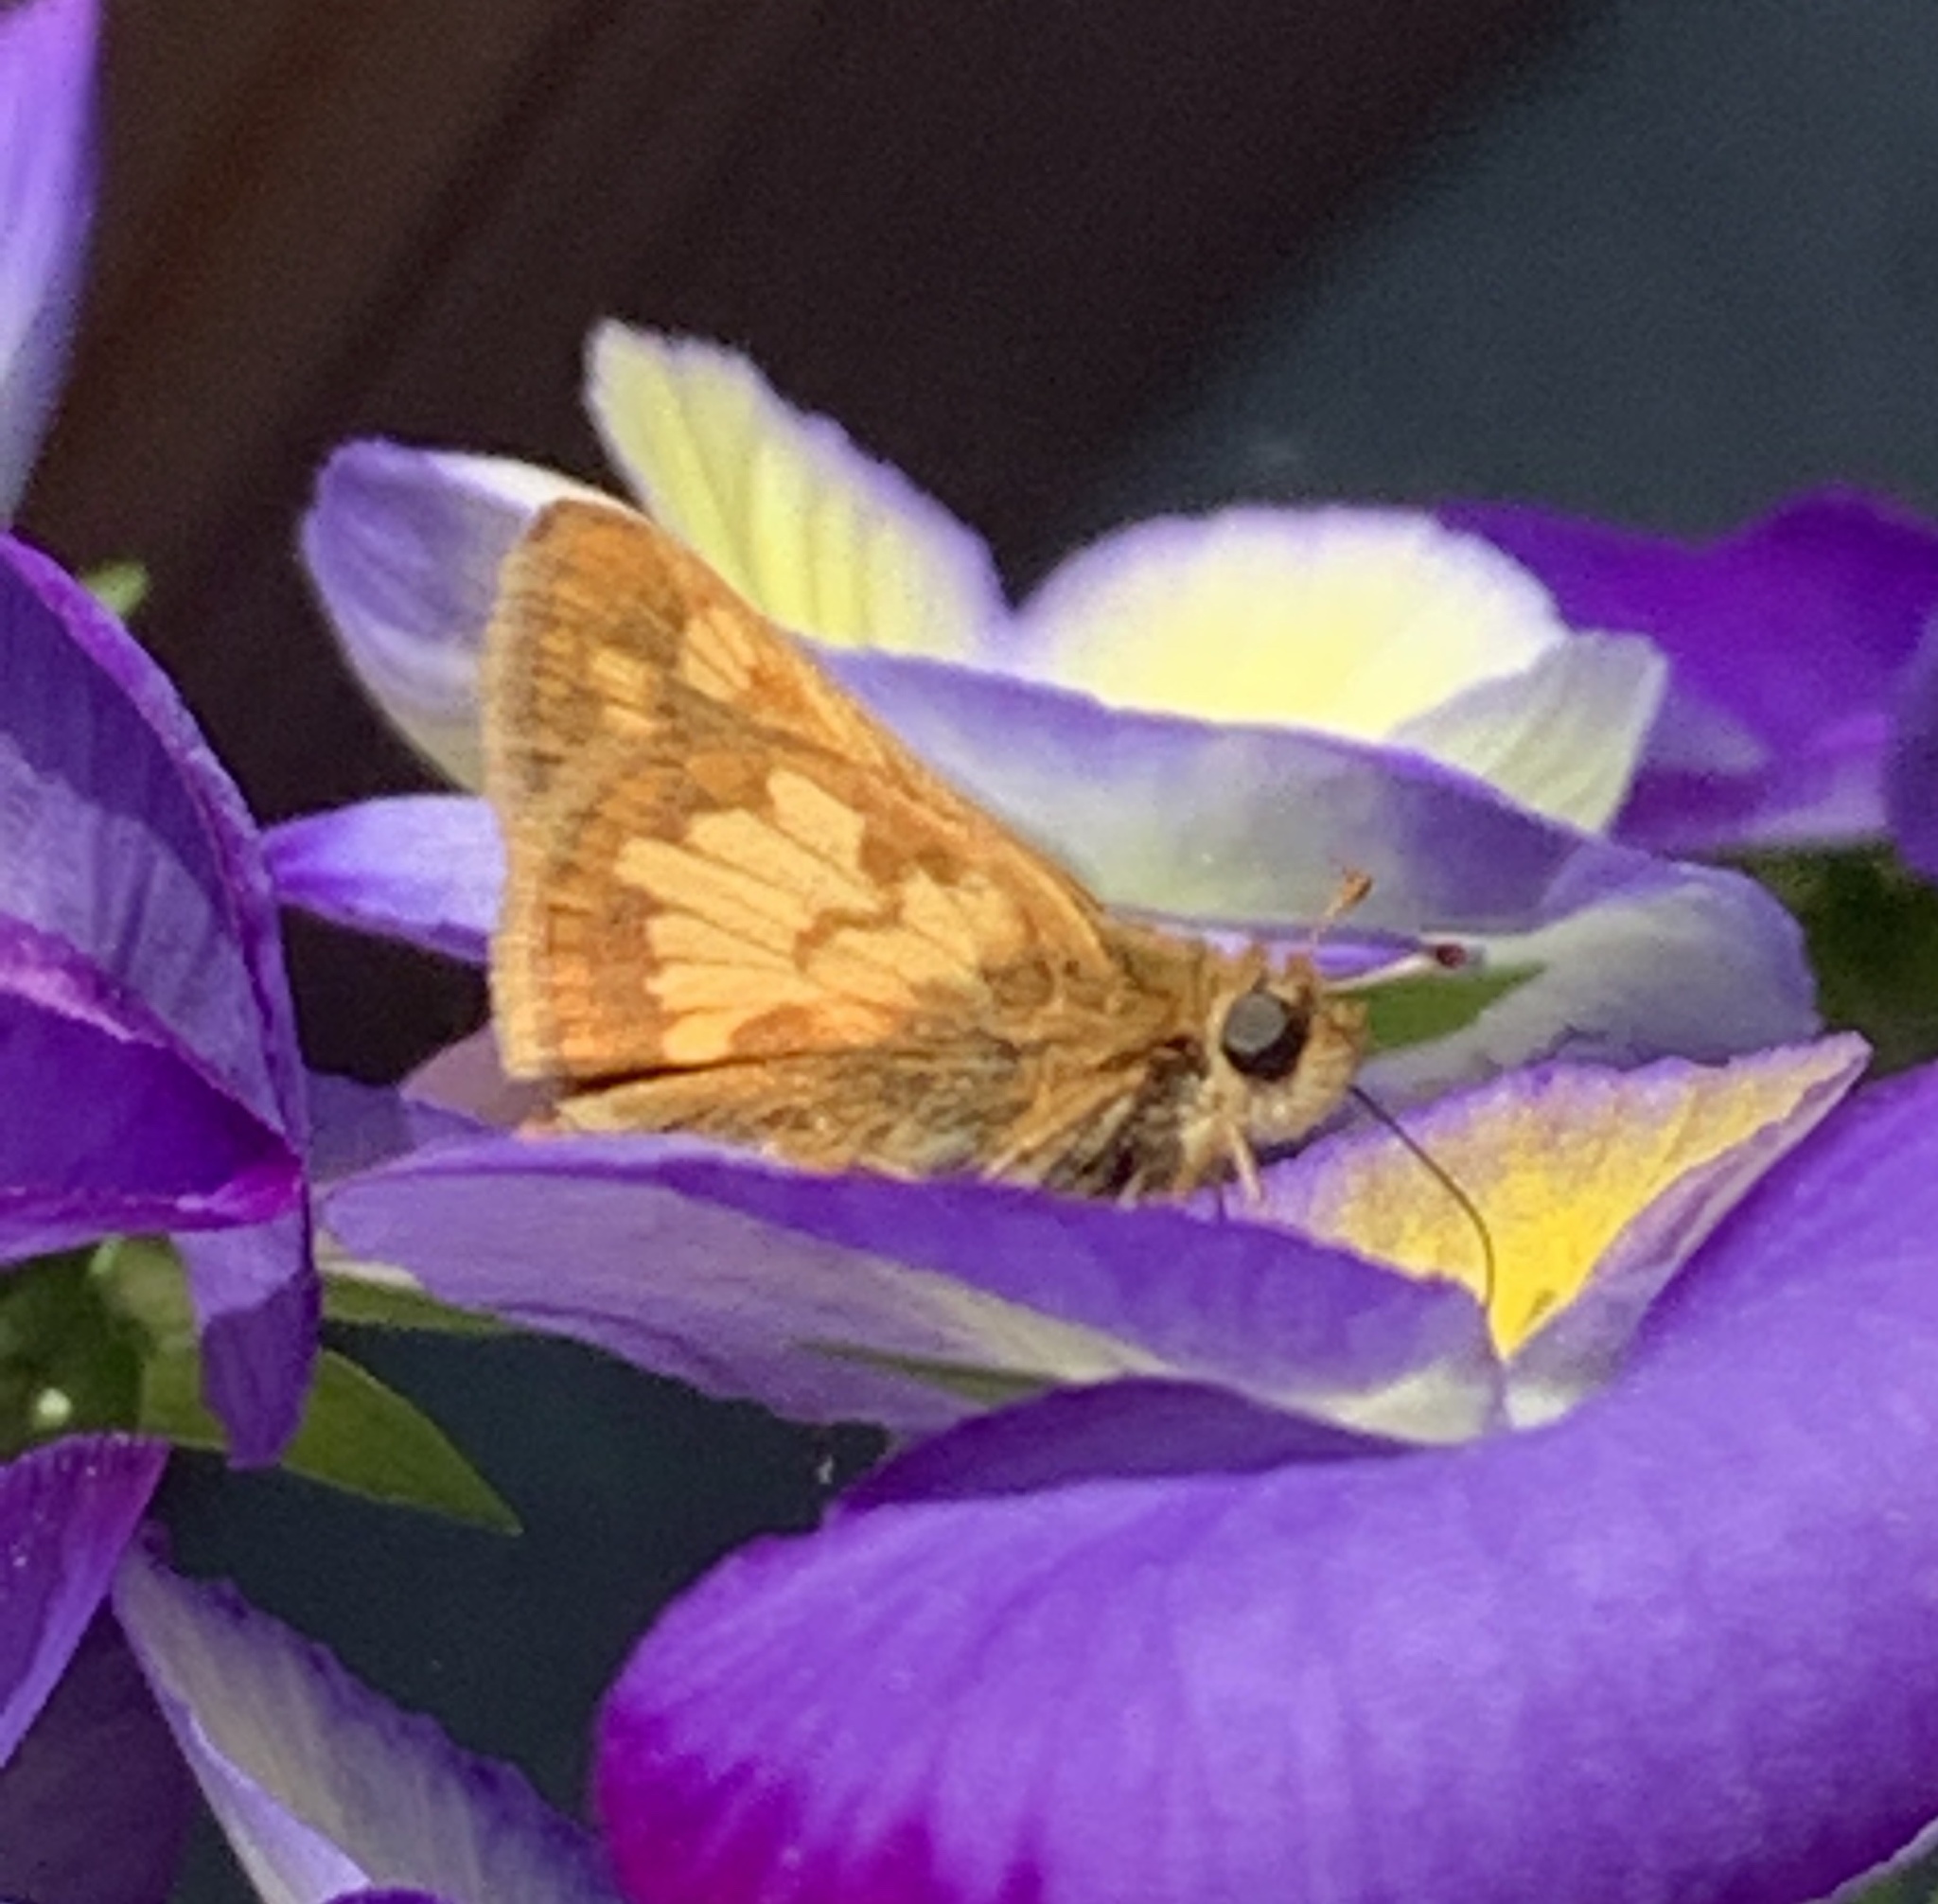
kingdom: Animalia
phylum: Arthropoda
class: Insecta
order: Lepidoptera
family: Hesperiidae
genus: Polites
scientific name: Polites coras
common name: Peck's skipper
